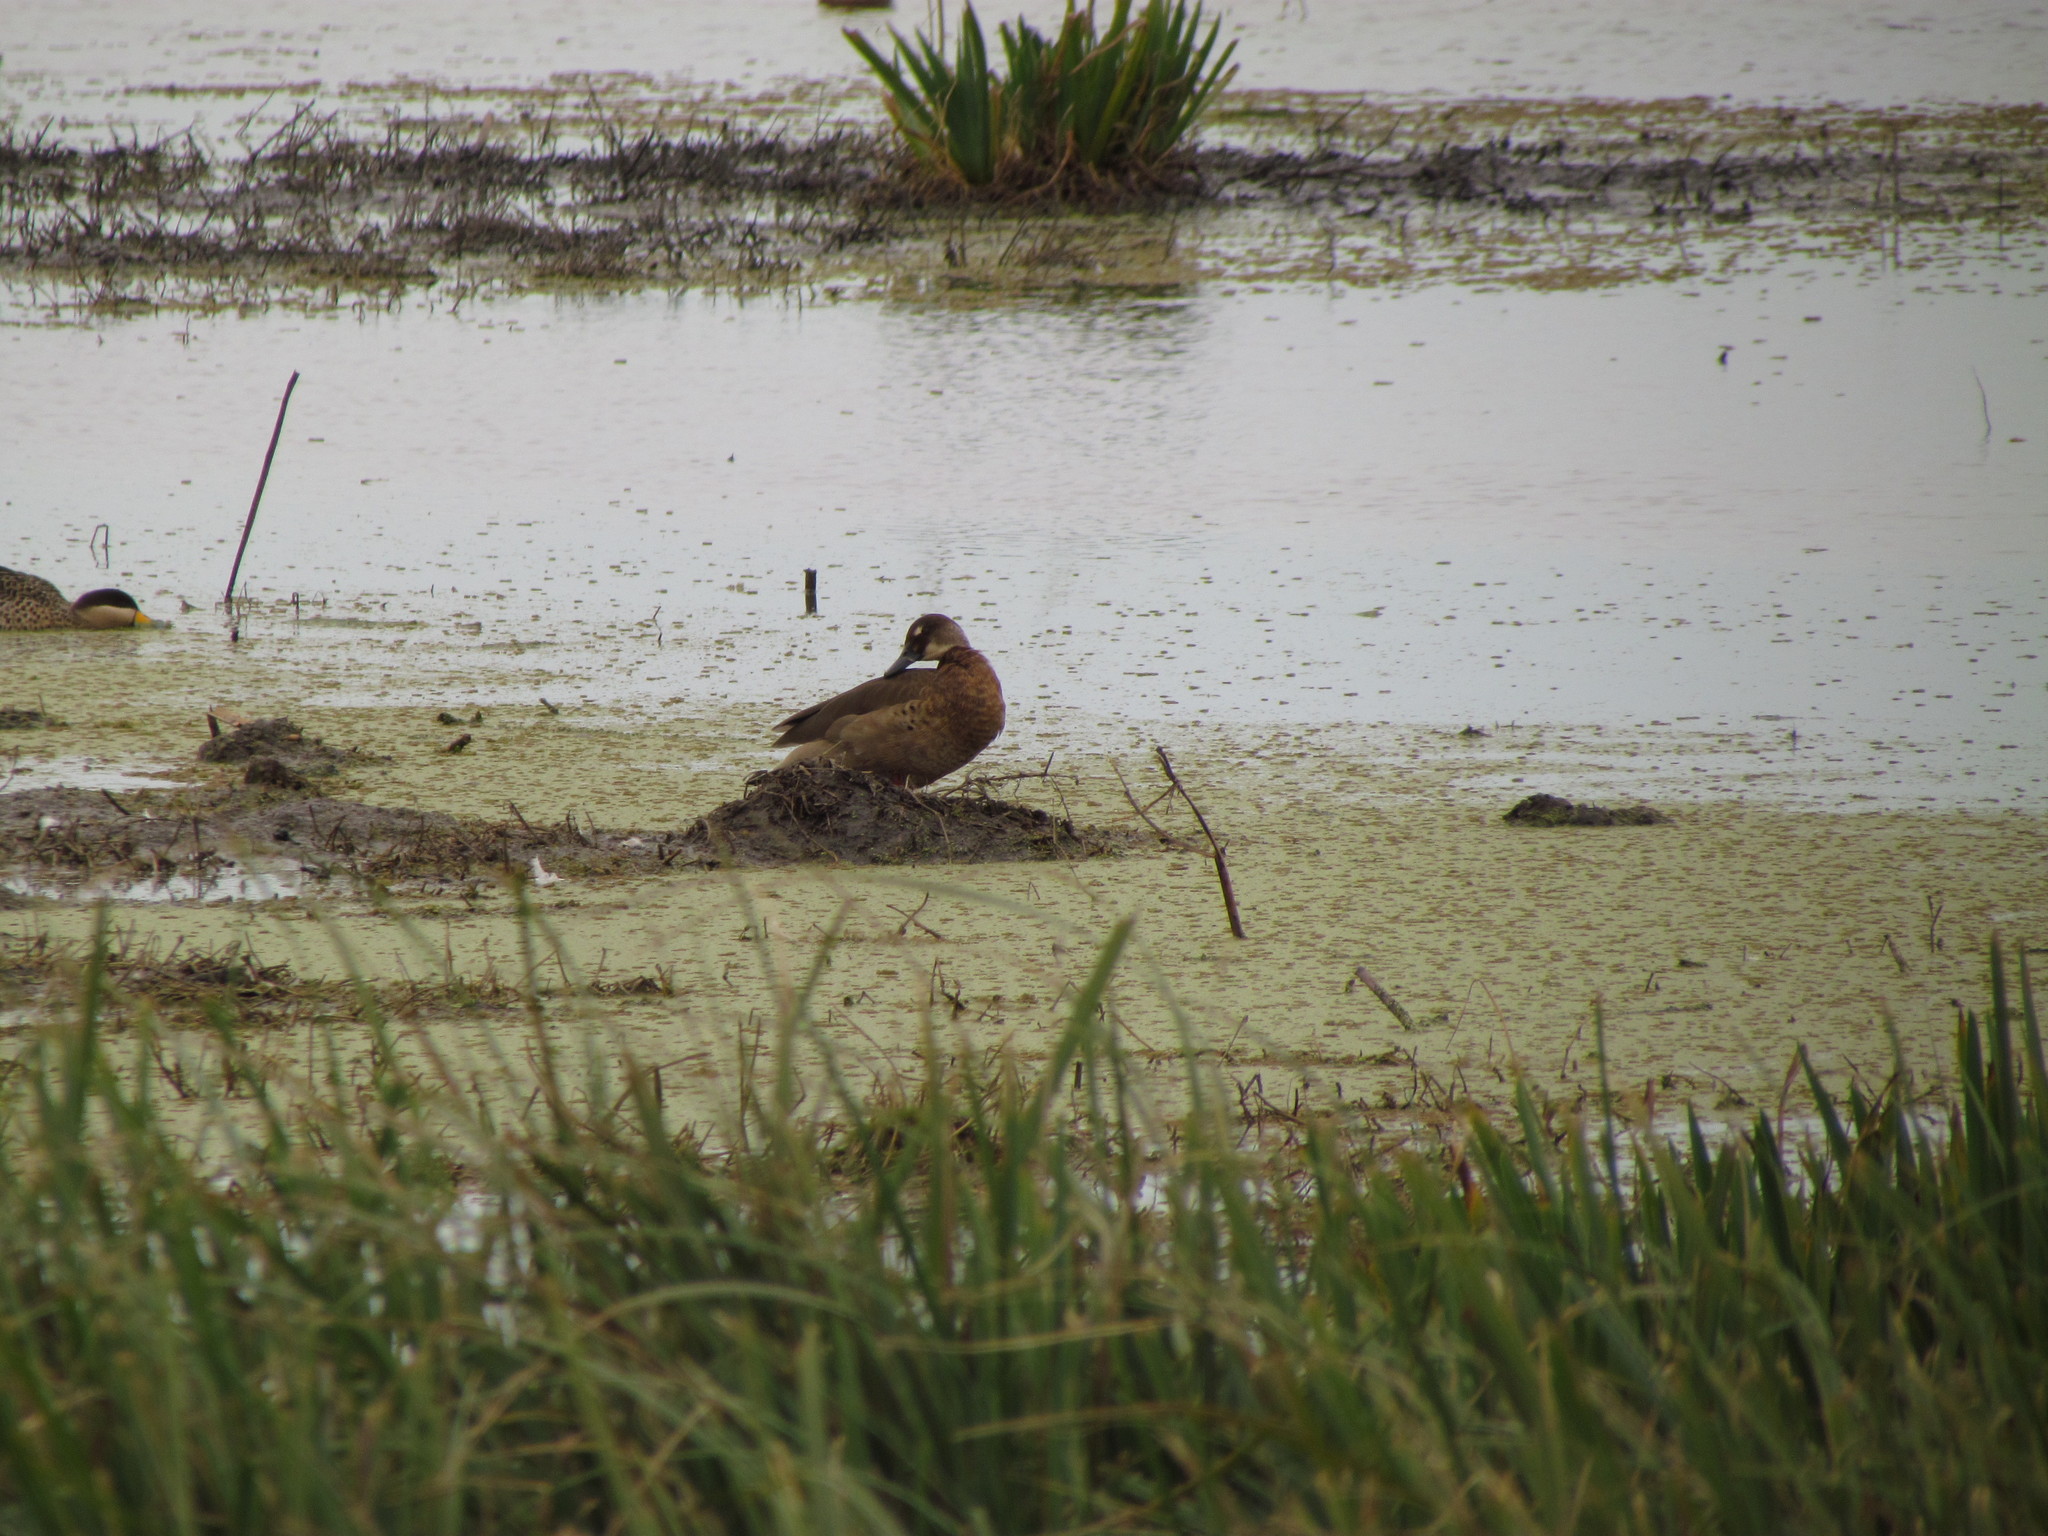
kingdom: Animalia
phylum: Chordata
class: Aves
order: Anseriformes
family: Anatidae
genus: Callonetta
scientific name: Callonetta leucophrys
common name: Ringed teal
